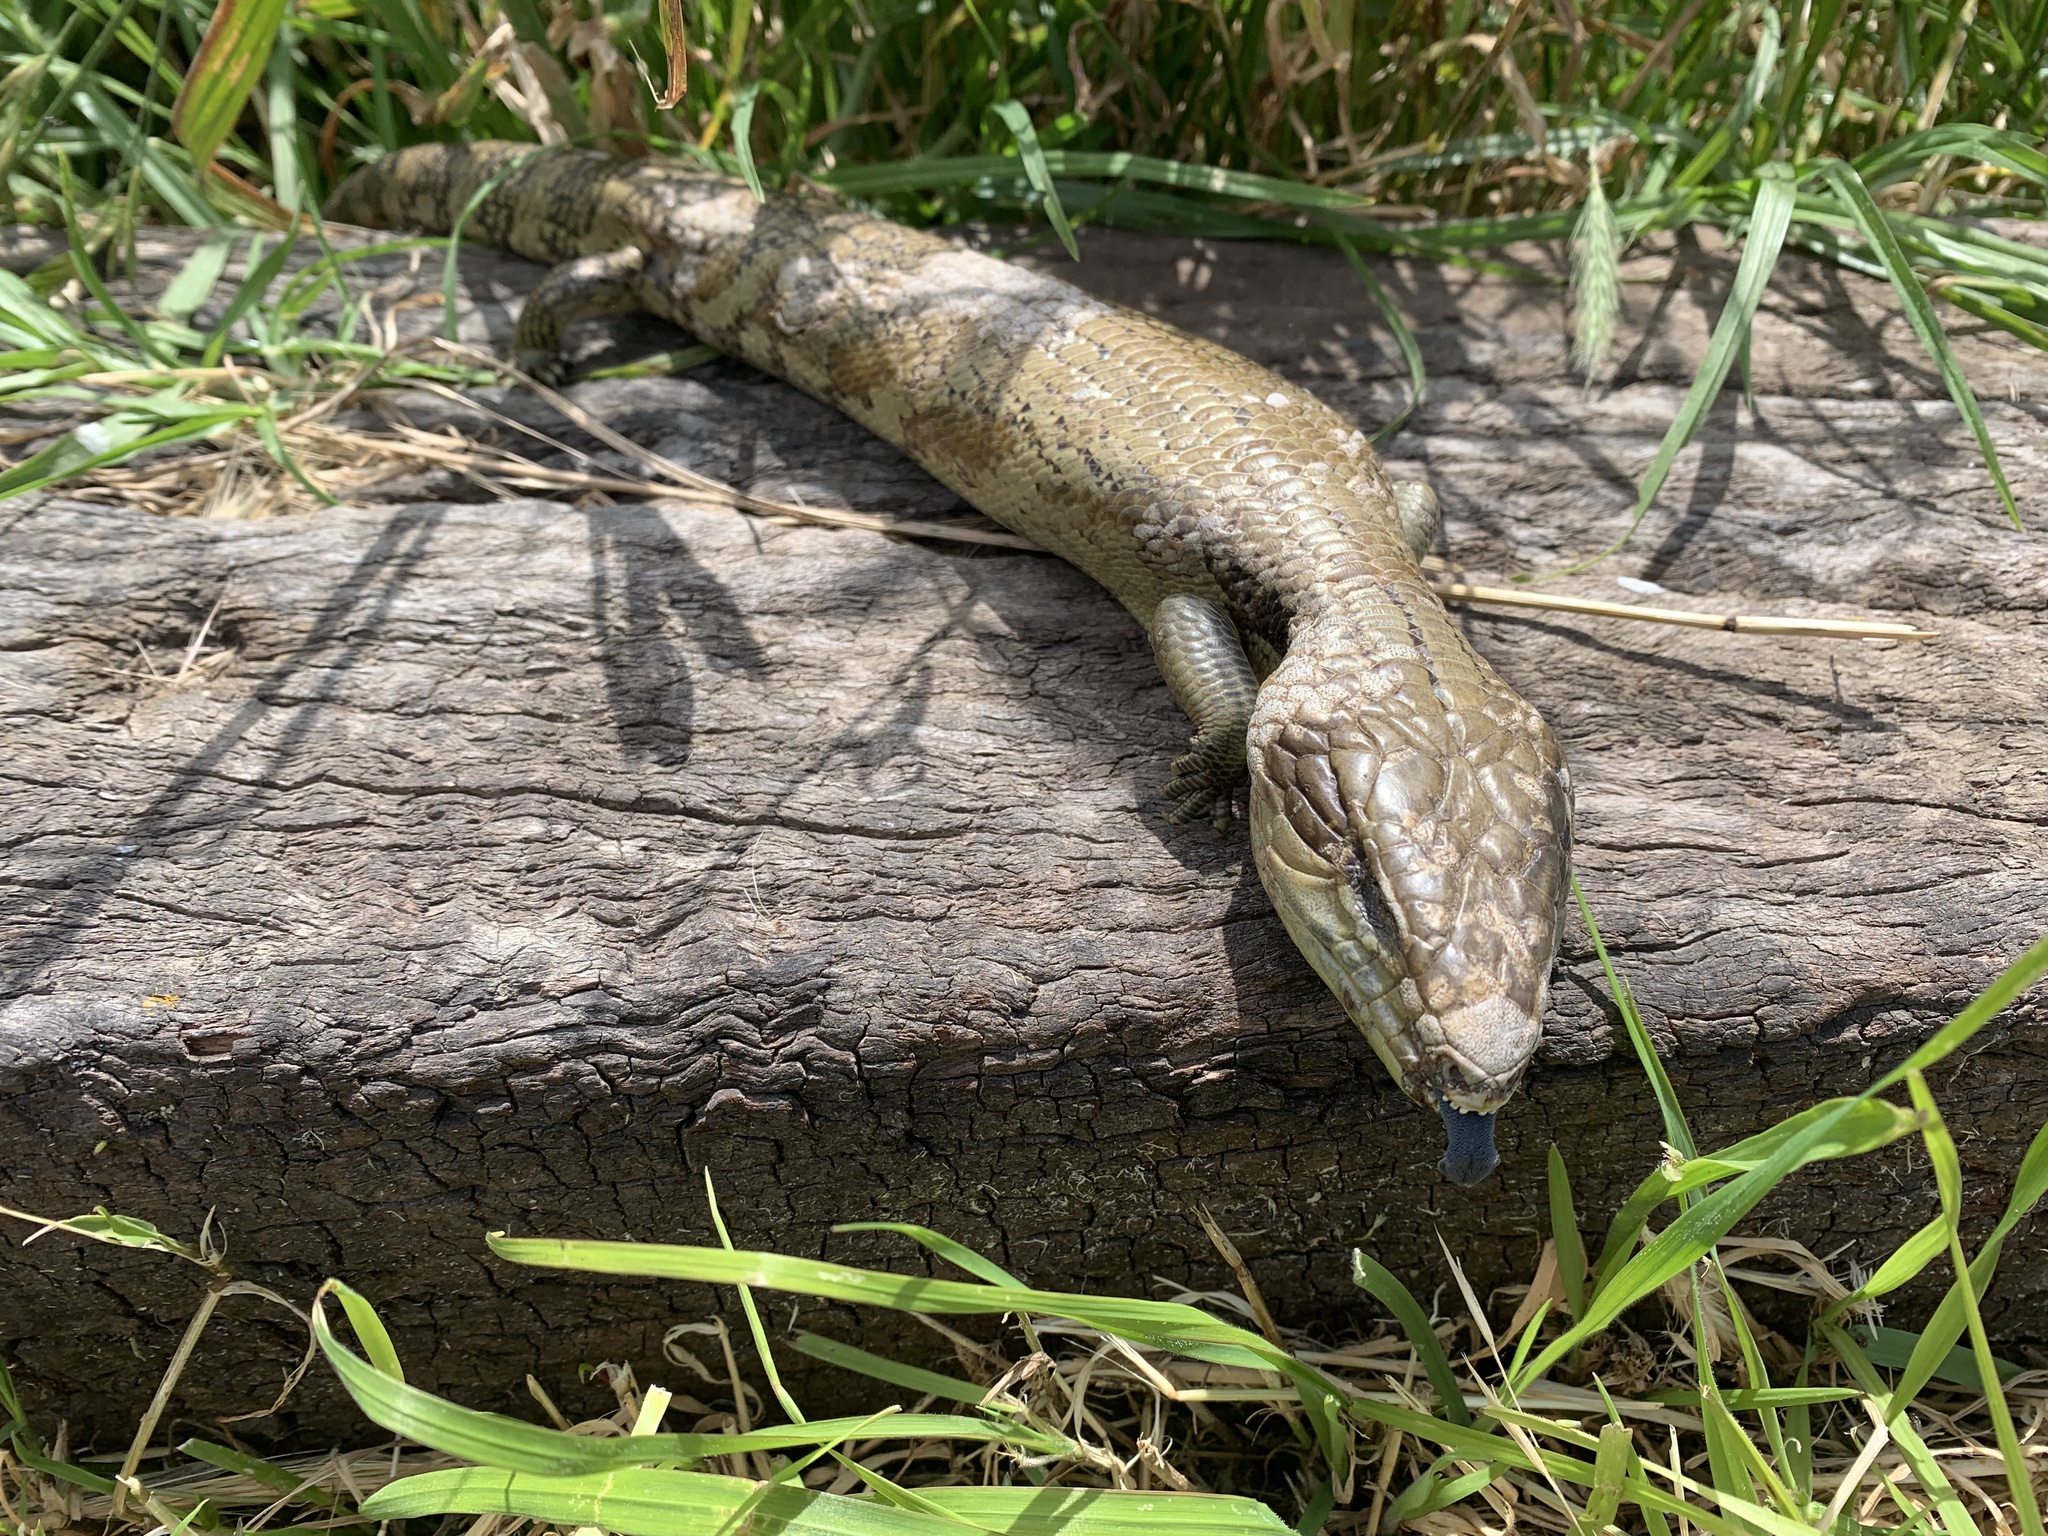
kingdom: Animalia
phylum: Chordata
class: Squamata
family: Scincidae
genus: Tiliqua
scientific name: Tiliqua scincoides
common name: Common bluetongue
